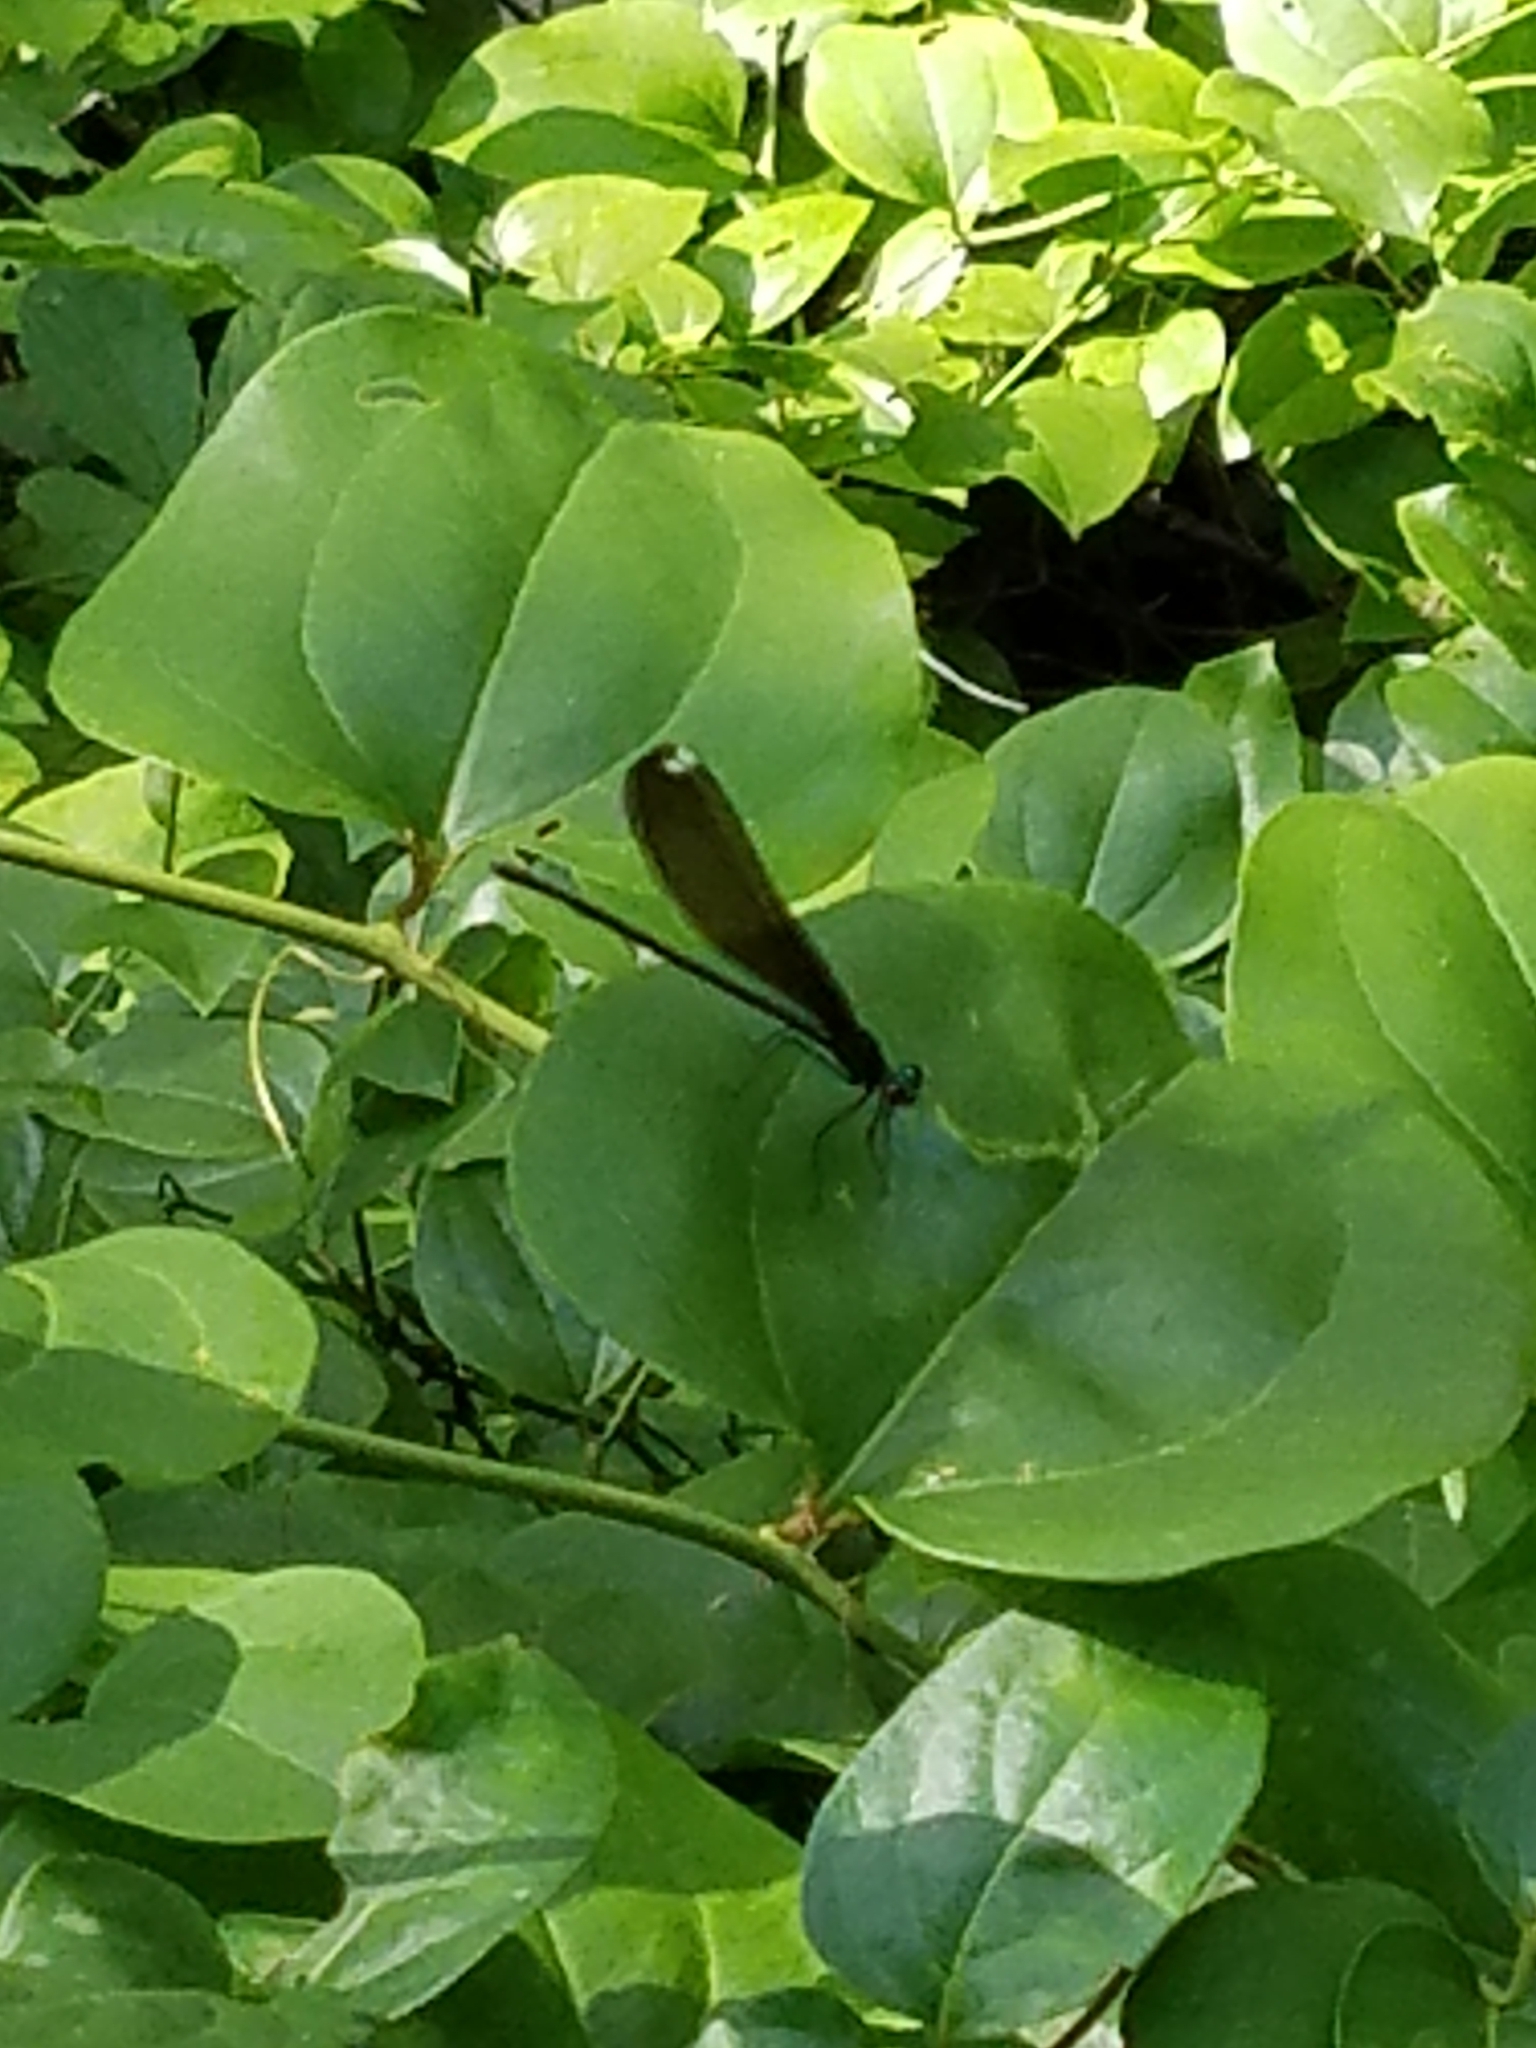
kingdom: Animalia
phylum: Arthropoda
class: Insecta
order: Odonata
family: Calopterygidae
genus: Calopteryx
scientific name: Calopteryx maculata
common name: Ebony jewelwing
